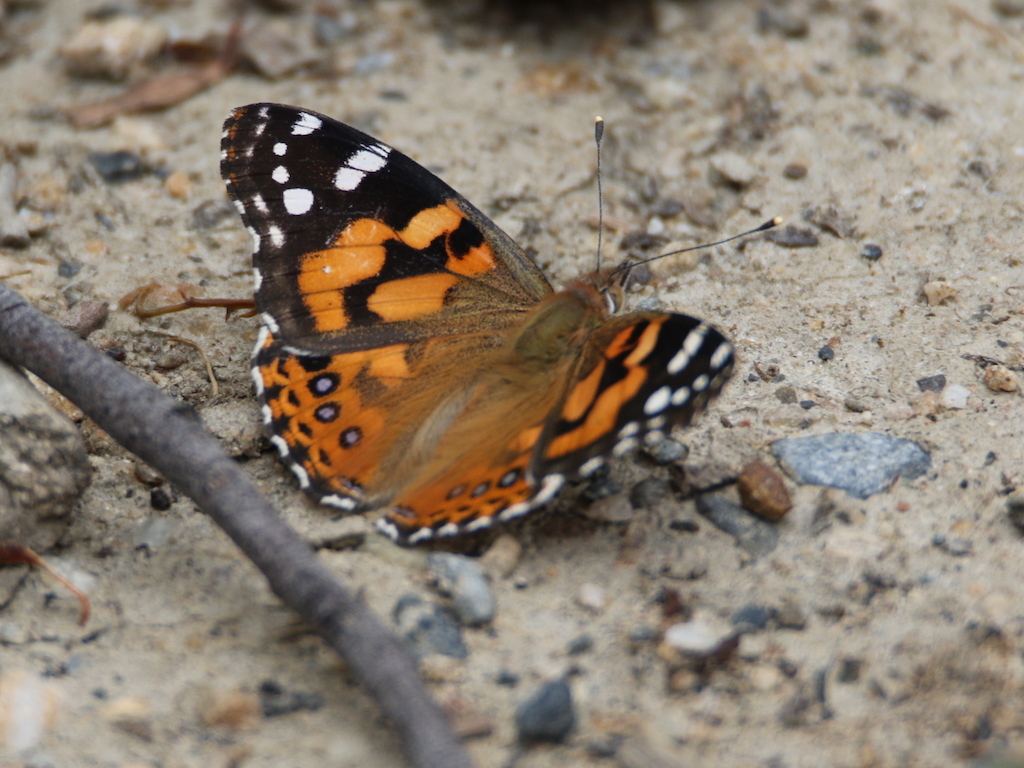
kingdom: Animalia
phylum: Arthropoda
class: Insecta
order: Lepidoptera
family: Nymphalidae
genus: Vanessa
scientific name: Vanessa kershawi
